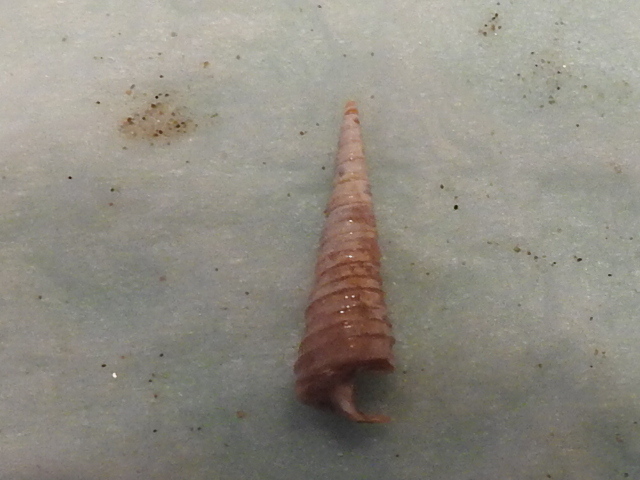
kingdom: Animalia
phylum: Mollusca
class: Gastropoda
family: Turritellidae
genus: Vermicularia
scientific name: Vermicularia fargoi
